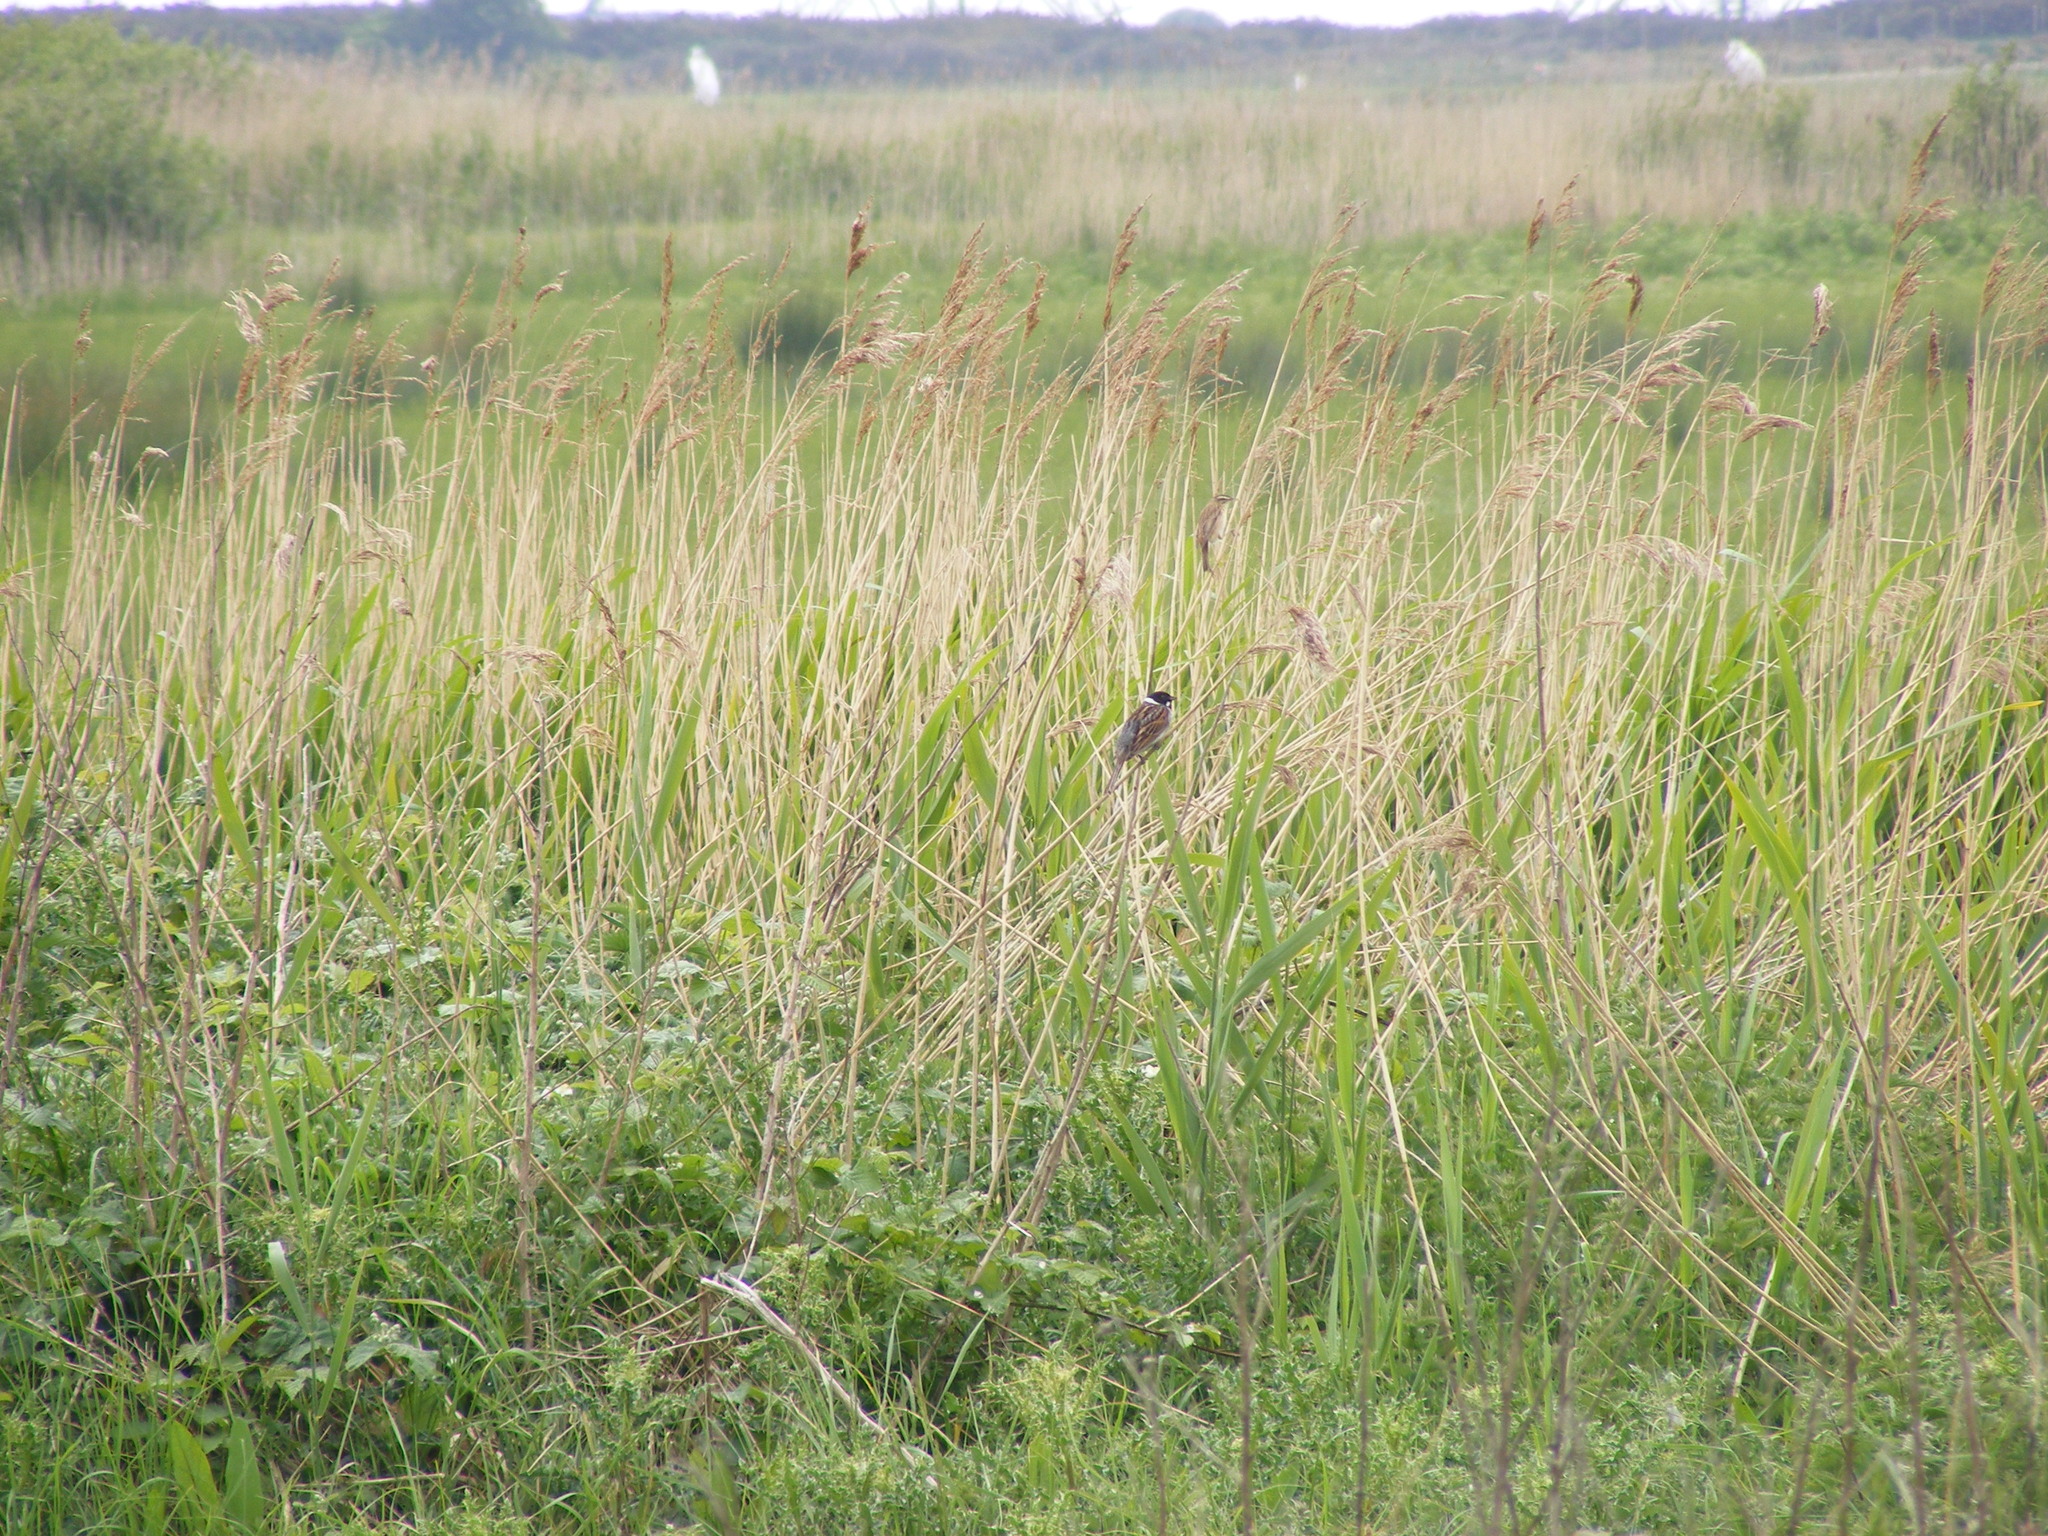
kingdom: Animalia
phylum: Chordata
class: Aves
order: Passeriformes
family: Emberizidae
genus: Emberiza
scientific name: Emberiza schoeniclus
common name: Reed bunting
